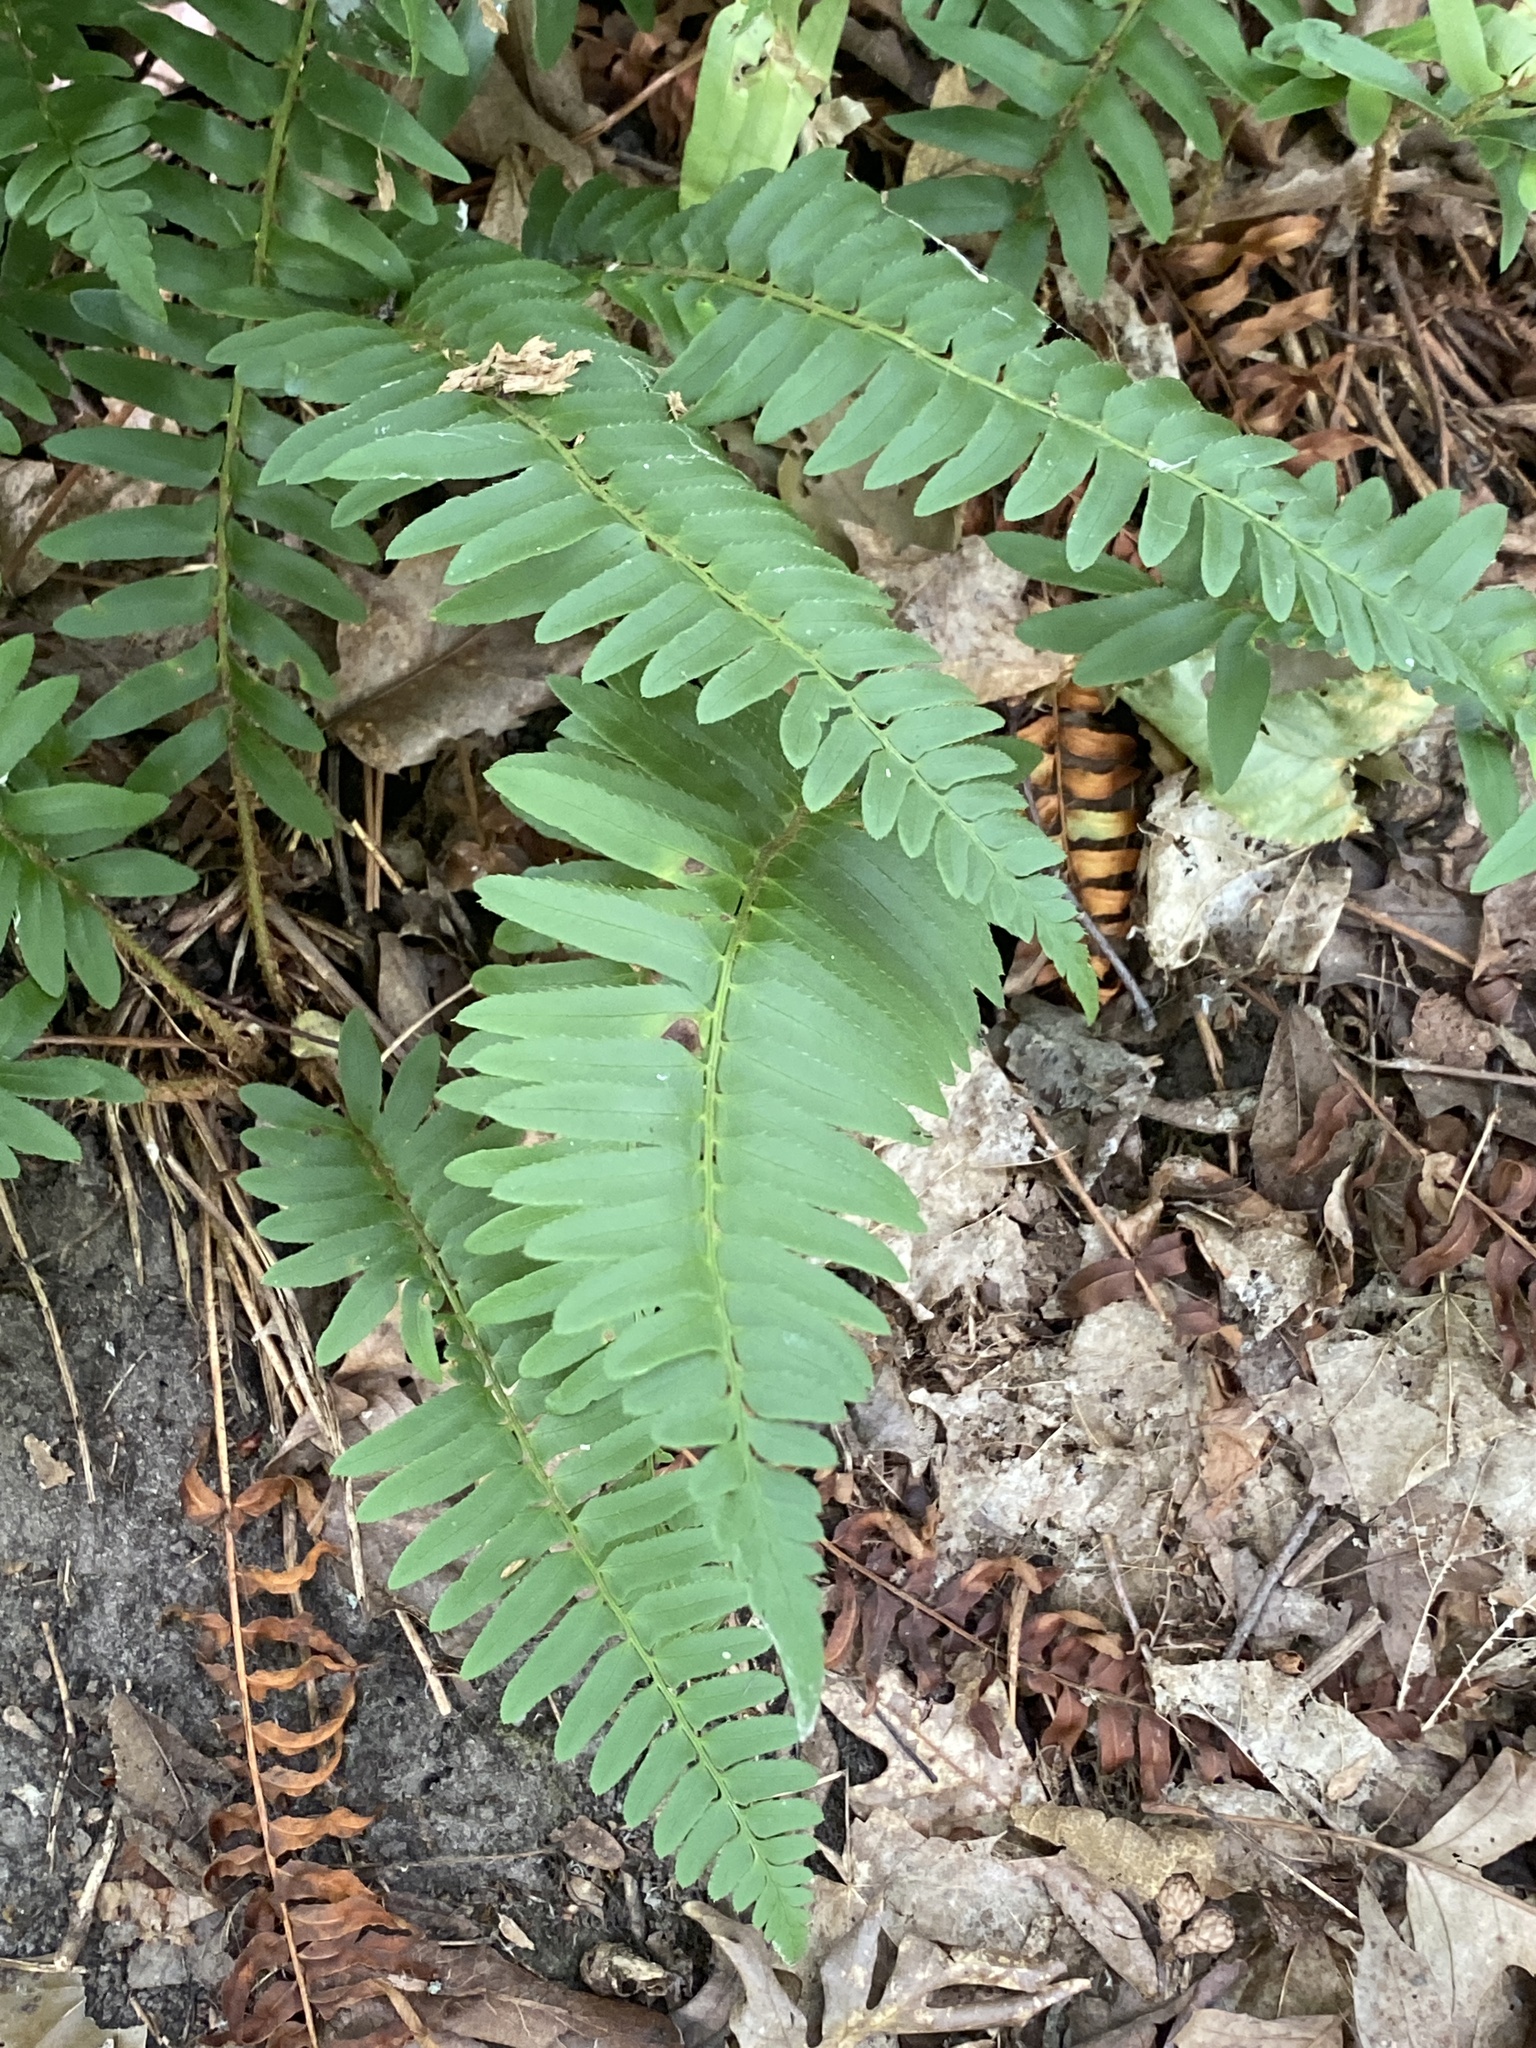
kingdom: Plantae
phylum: Tracheophyta
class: Polypodiopsida
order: Polypodiales
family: Dryopteridaceae
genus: Polystichum
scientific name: Polystichum acrostichoides
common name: Christmas fern
